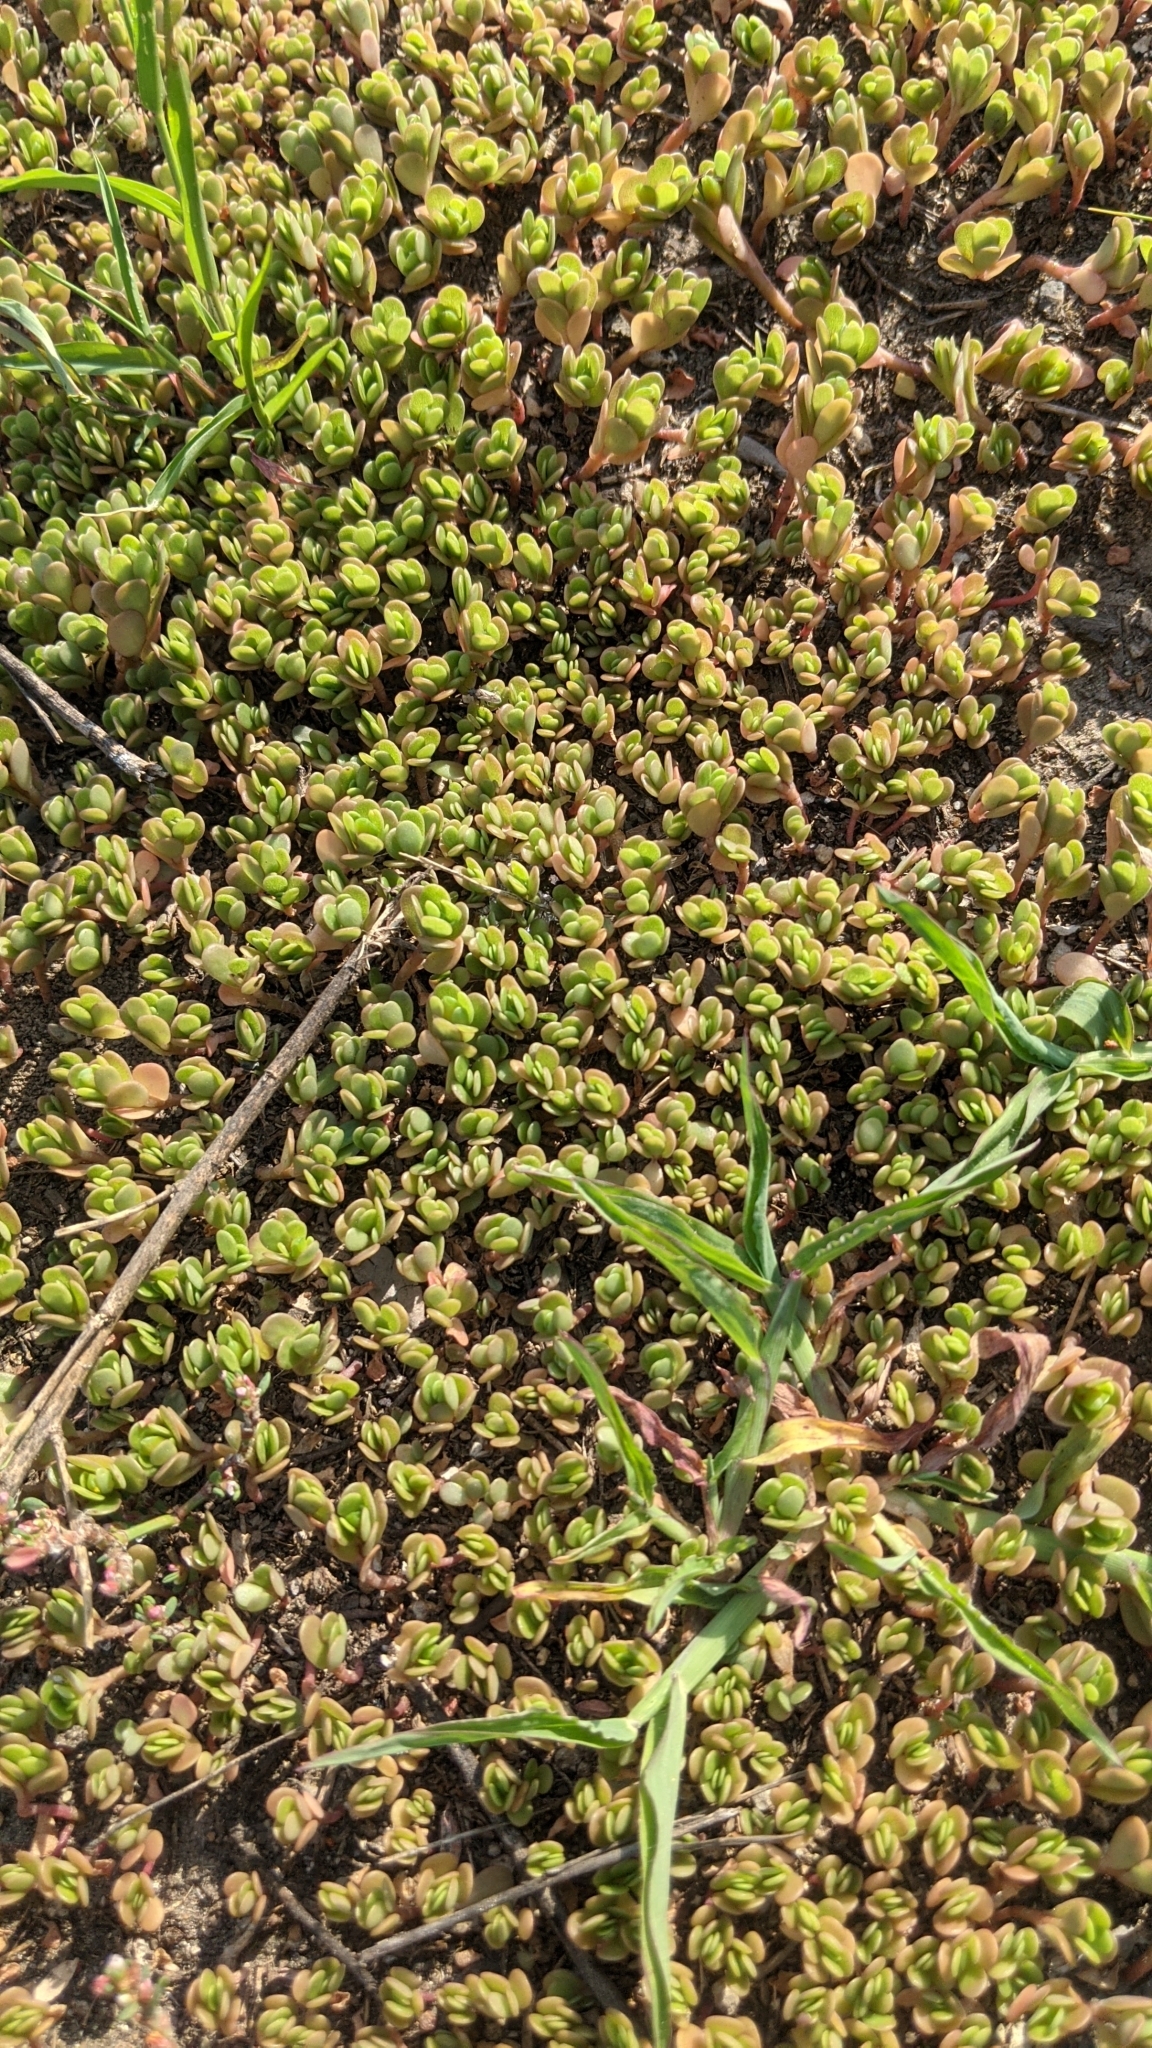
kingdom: Plantae
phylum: Tracheophyta
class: Magnoliopsida
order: Caryophyllales
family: Portulacaceae
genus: Portulaca
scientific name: Portulaca oleracea
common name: Common purslane
